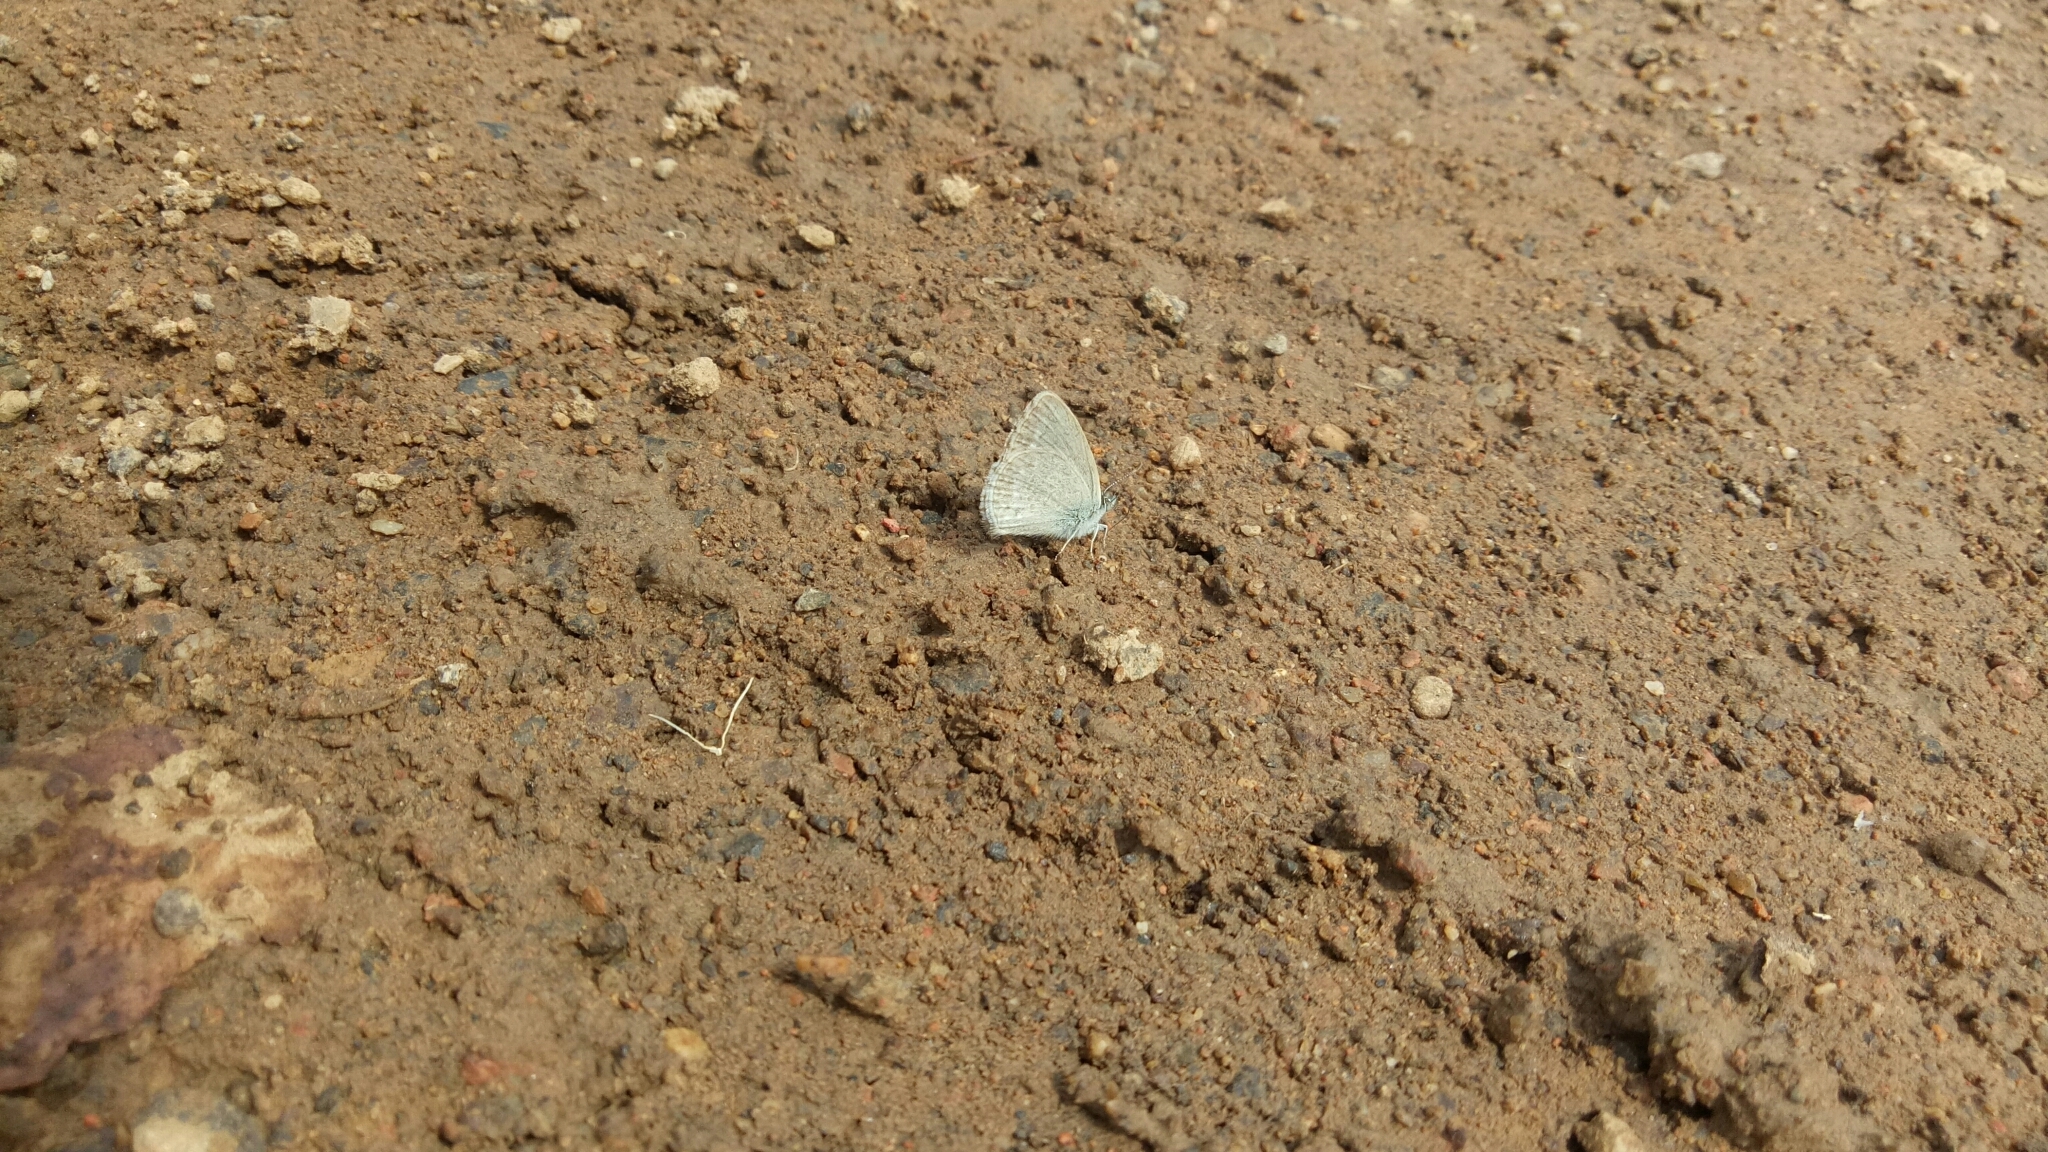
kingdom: Animalia
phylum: Arthropoda
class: Insecta
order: Lepidoptera
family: Lycaenidae
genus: Zizina
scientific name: Zizina labradus
